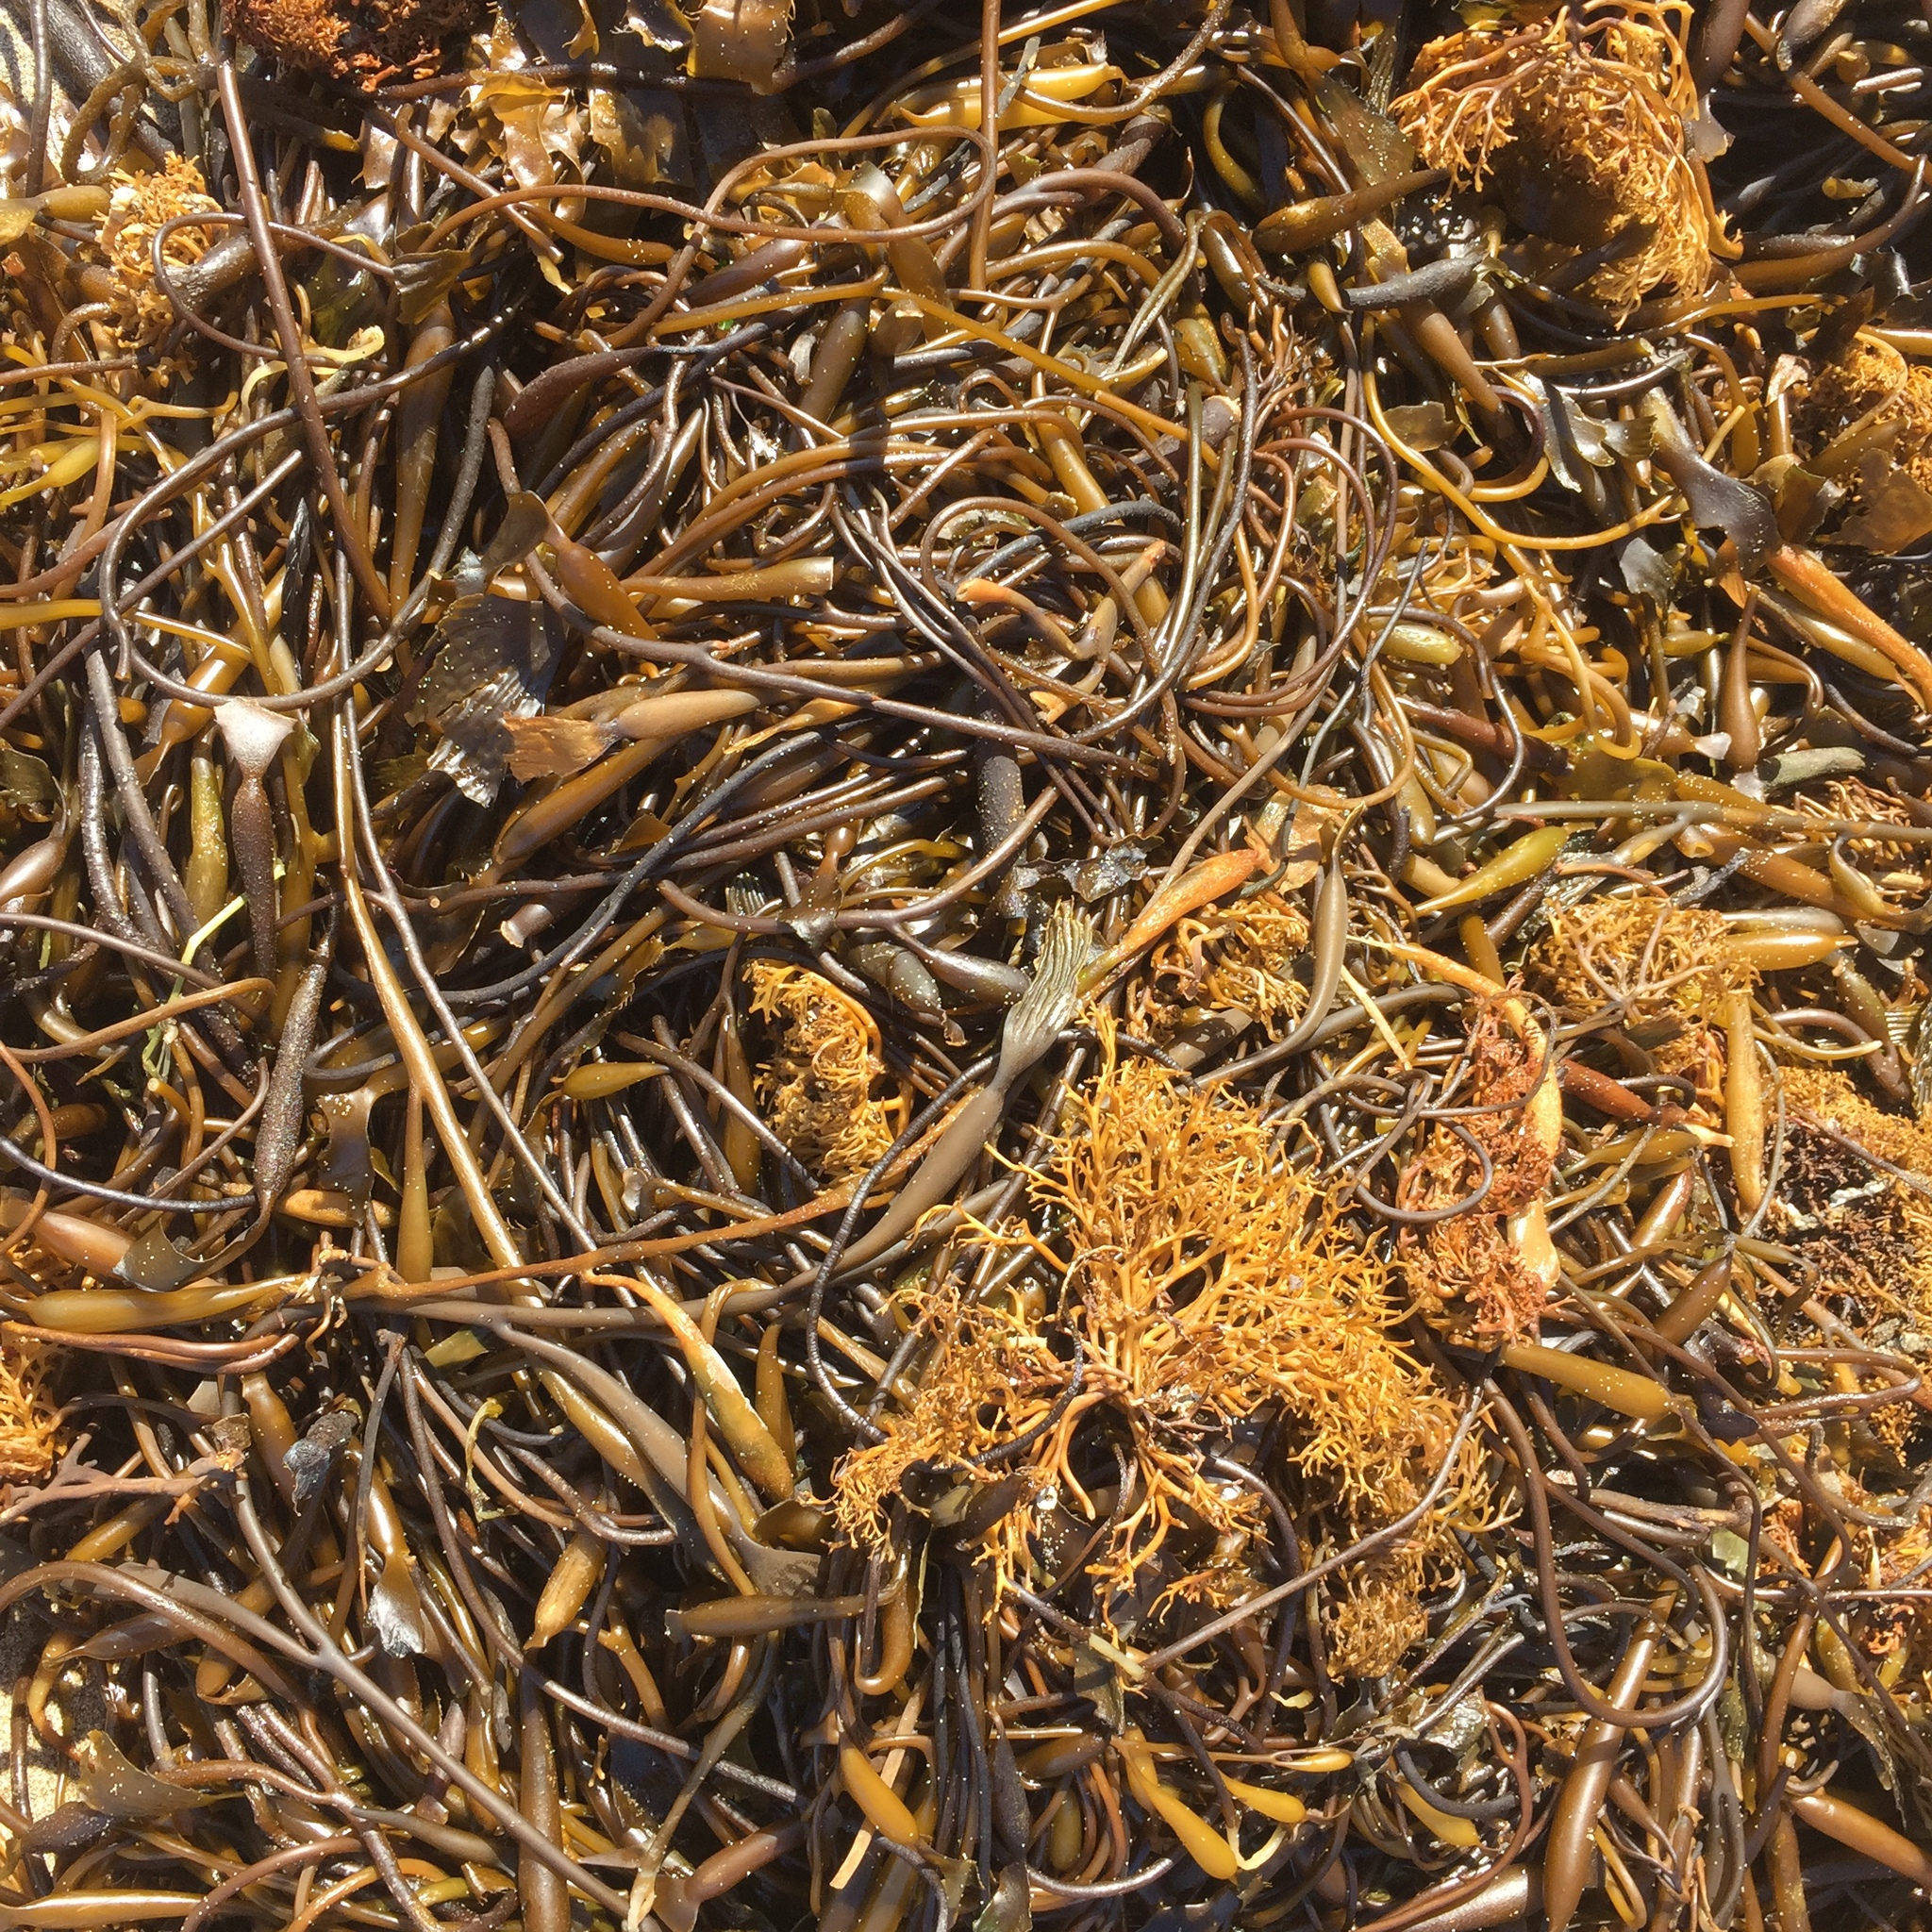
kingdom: Chromista
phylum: Ochrophyta
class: Phaeophyceae
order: Laminariales
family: Laminariaceae
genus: Macrocystis
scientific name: Macrocystis pyrifera
